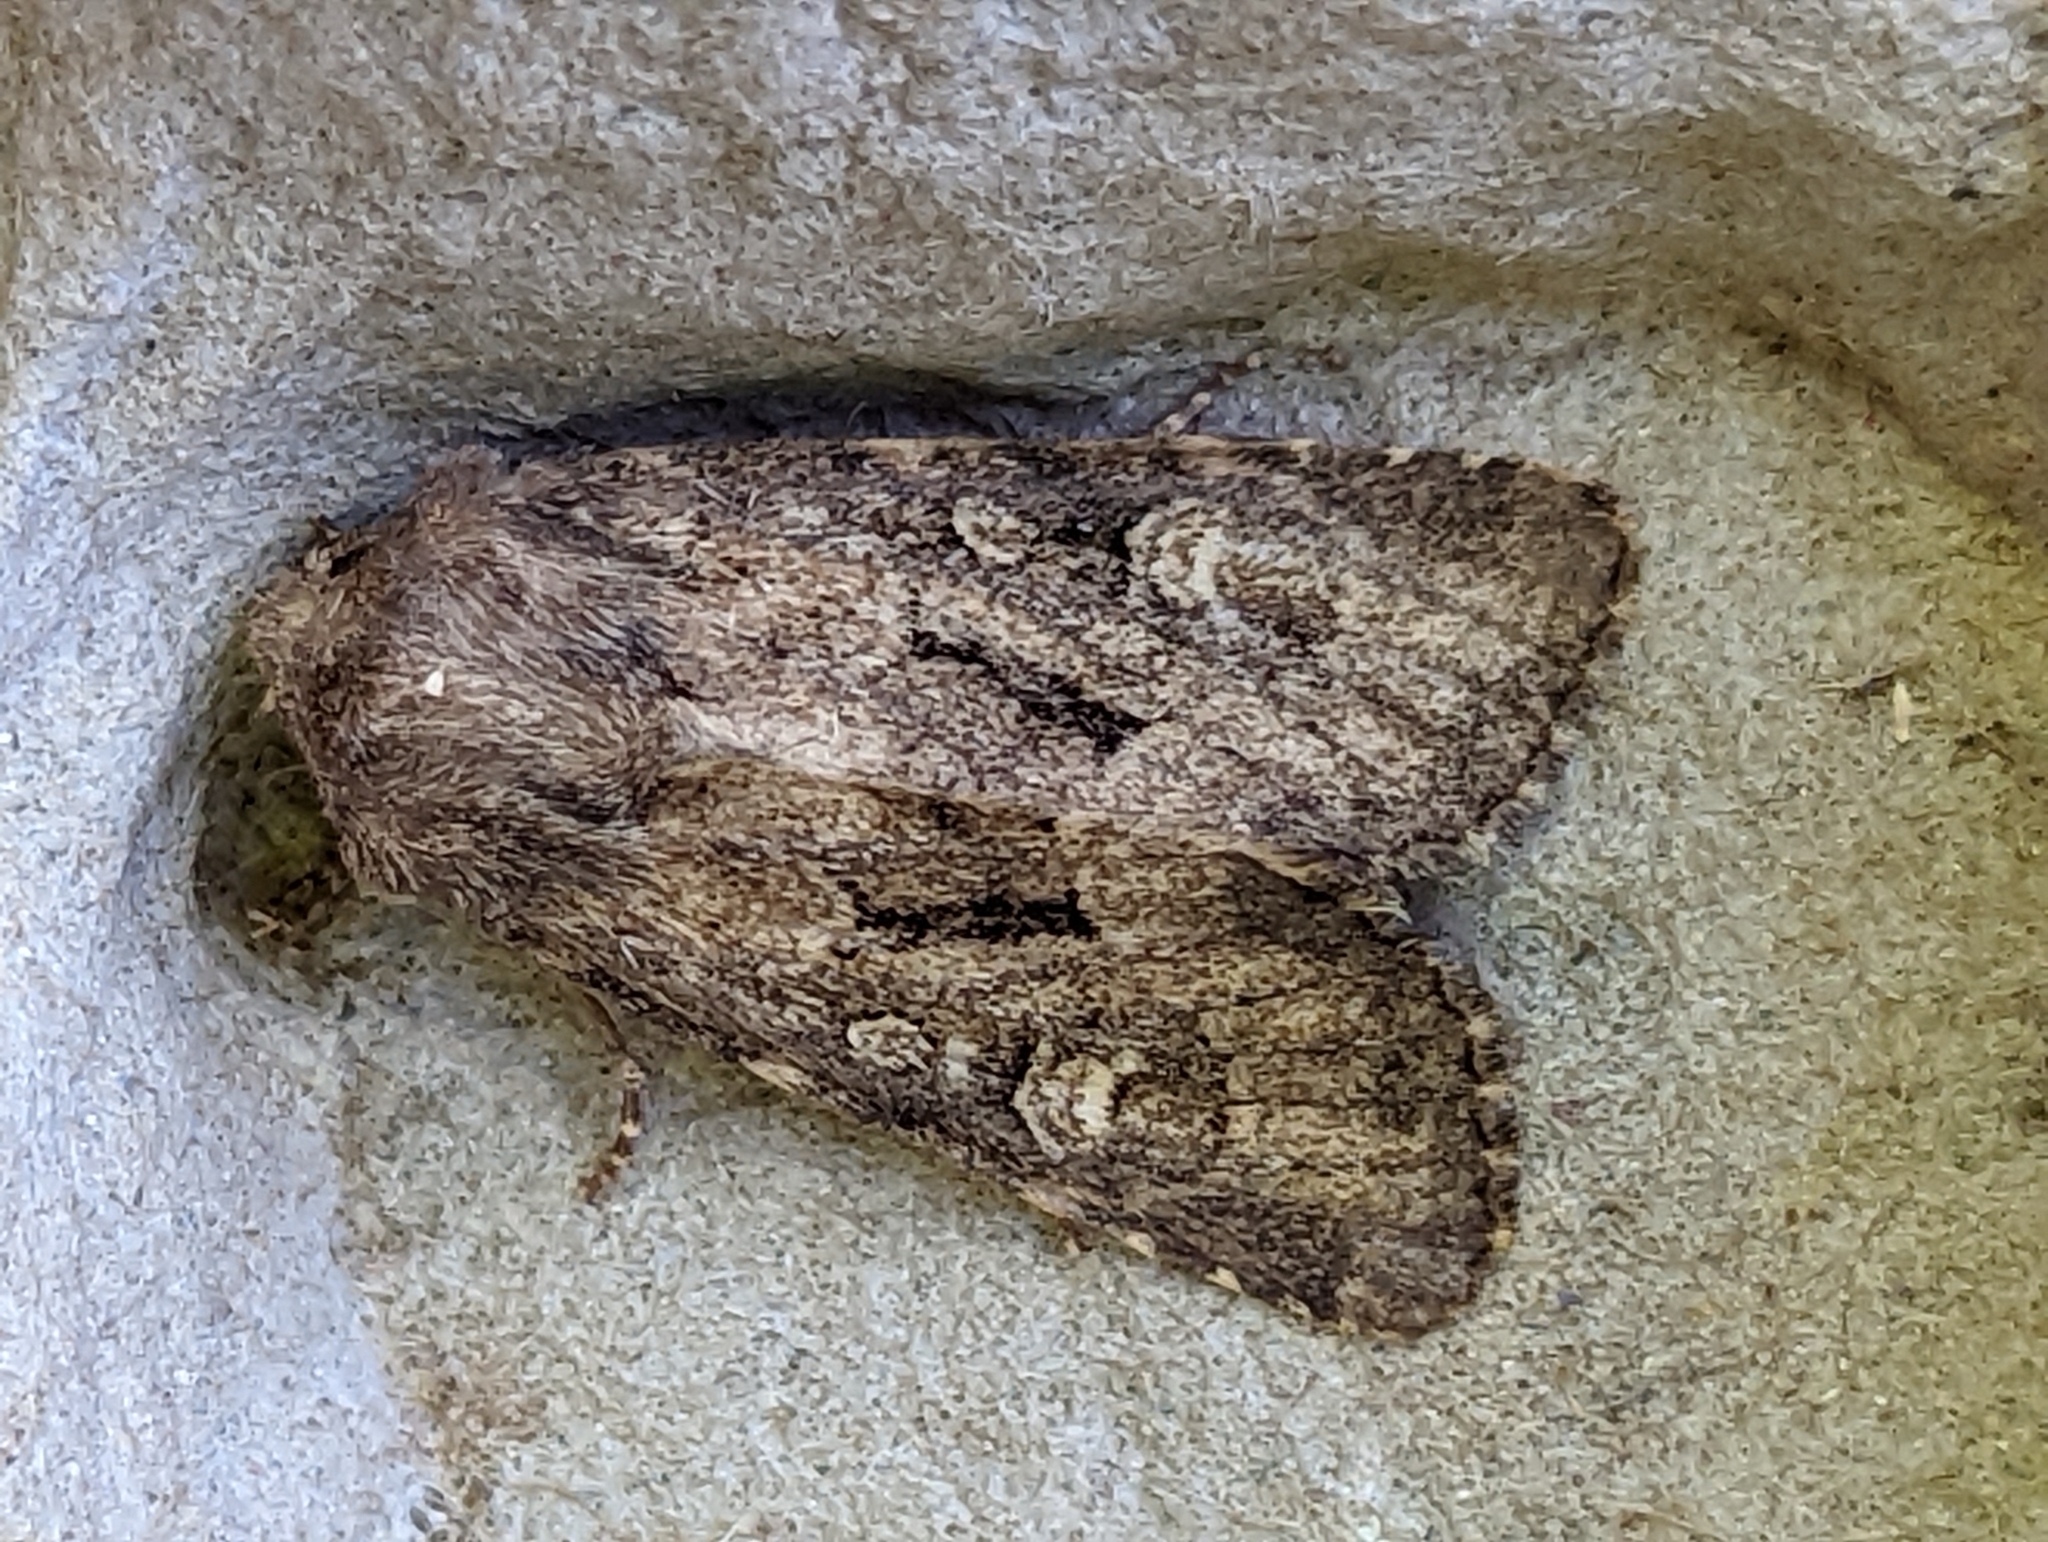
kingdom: Animalia
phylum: Arthropoda
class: Insecta
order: Lepidoptera
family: Noctuidae
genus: Luperina
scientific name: Luperina testacea
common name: Flounced rustic
